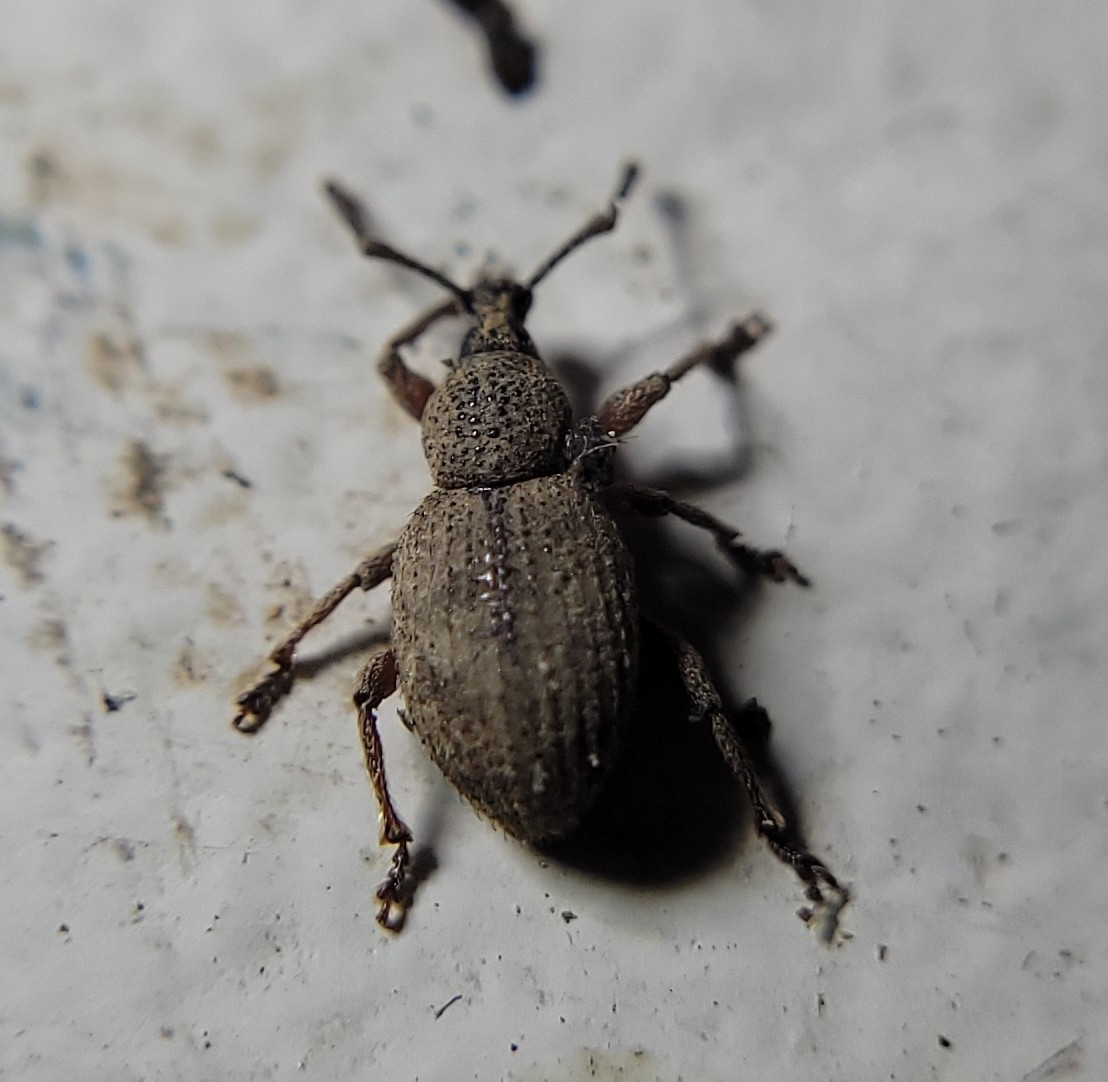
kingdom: Animalia
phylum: Arthropoda
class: Insecta
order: Coleoptera
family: Curculionidae
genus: Otiorhynchus
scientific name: Otiorhynchus singularis
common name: Clay-coloured weevil
